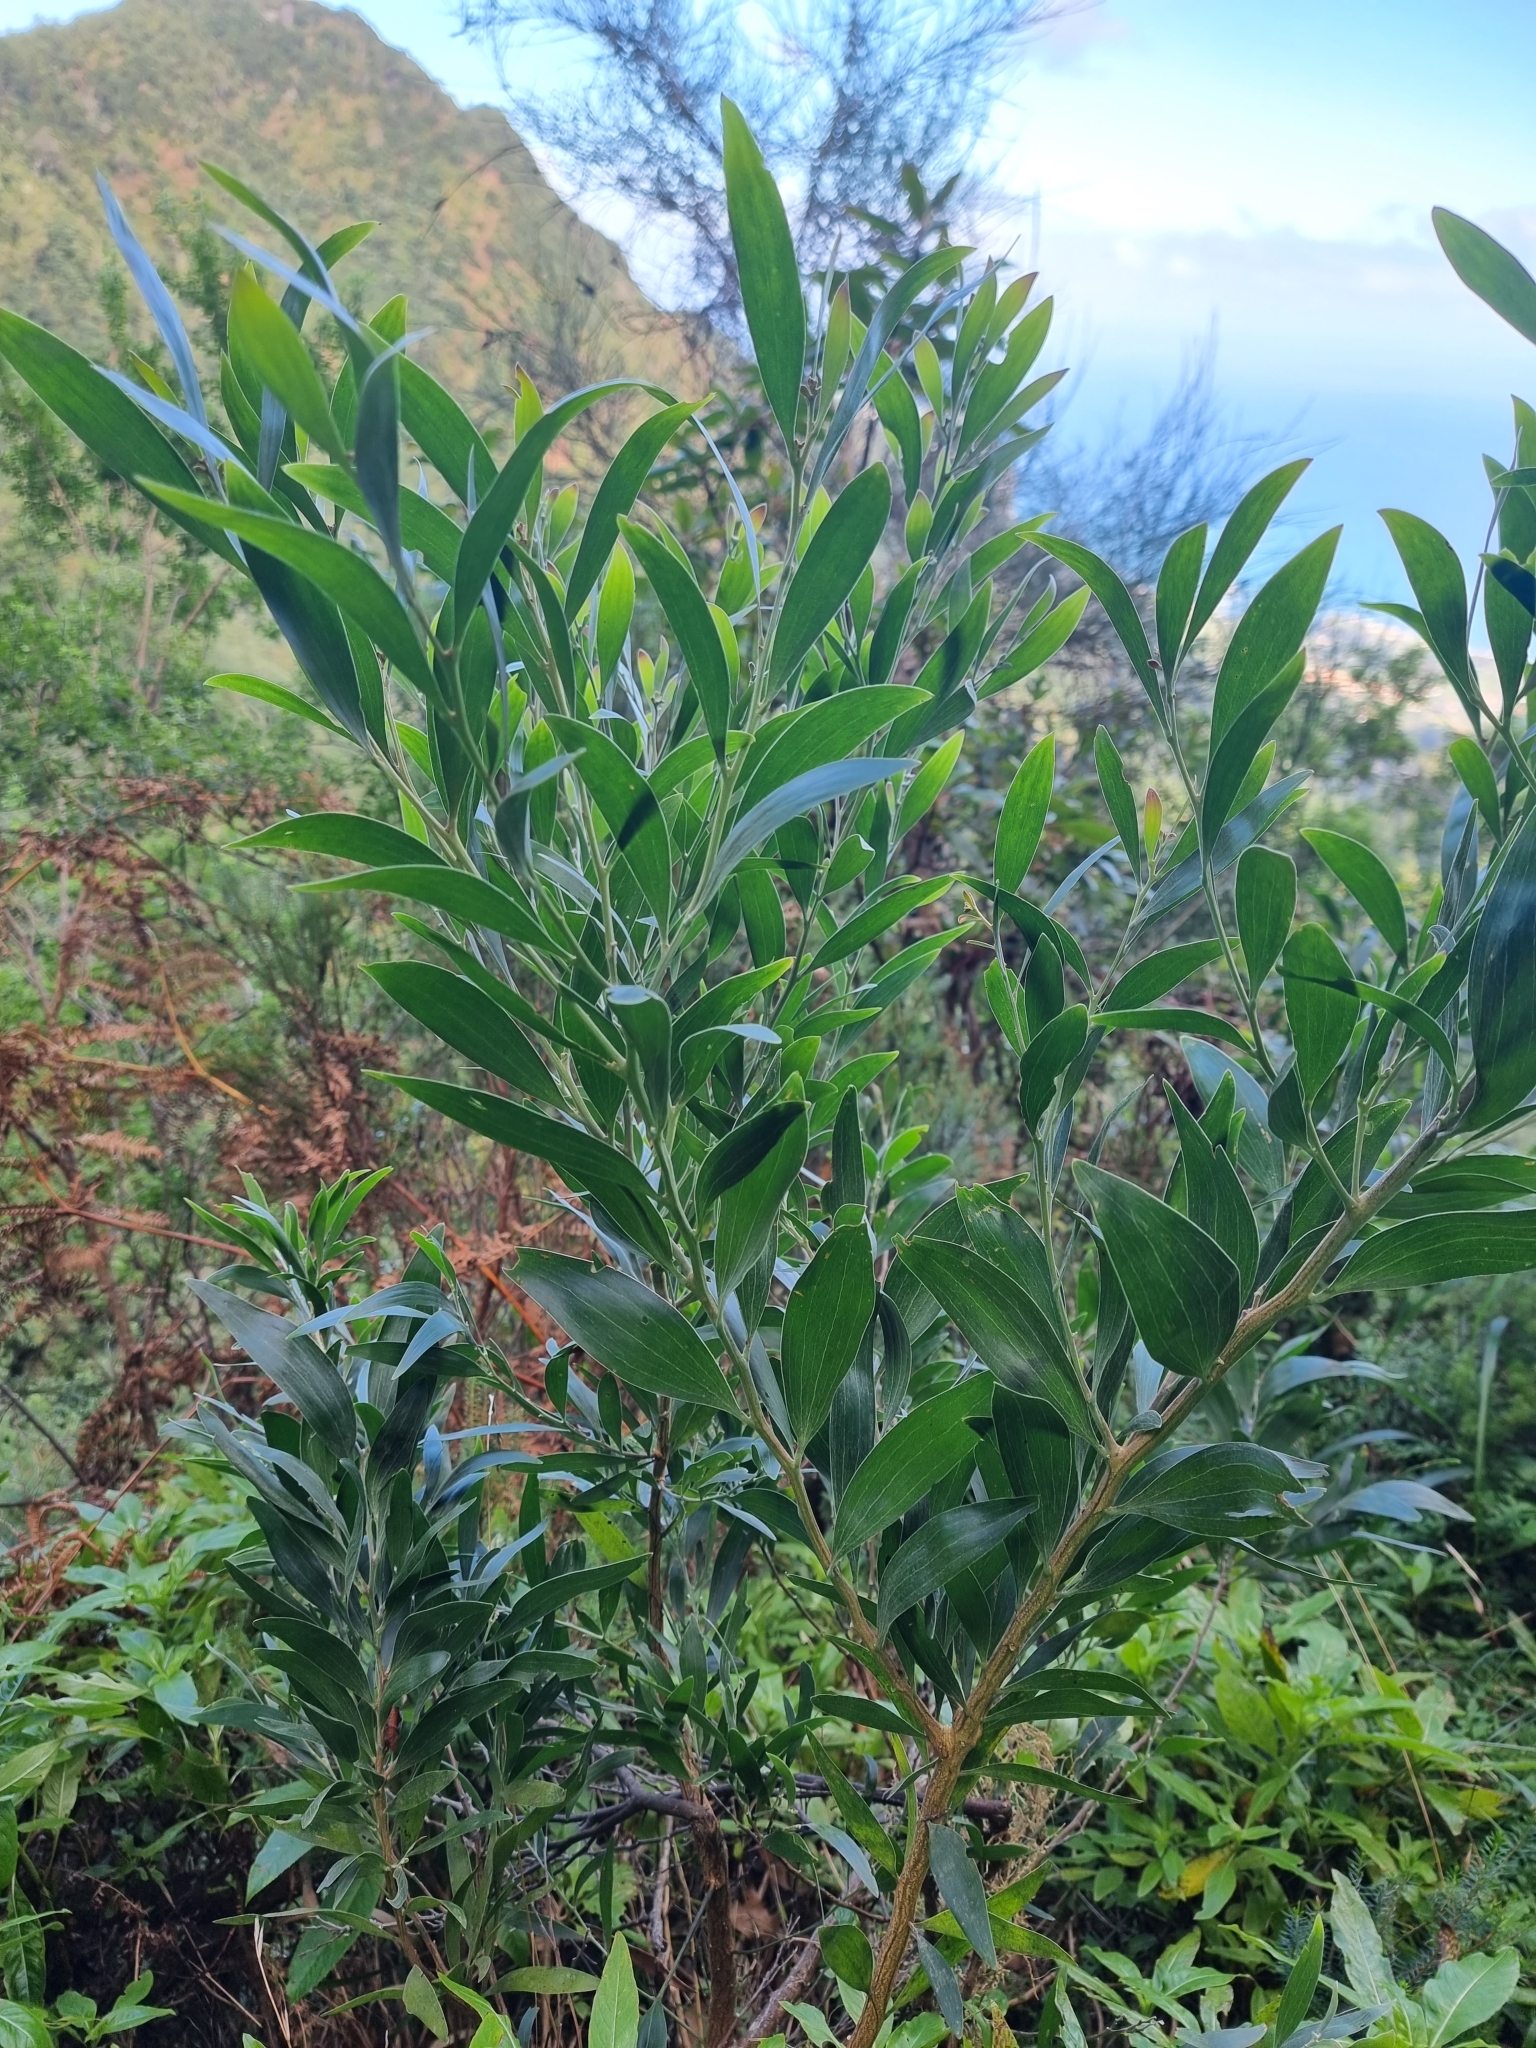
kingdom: Plantae
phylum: Tracheophyta
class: Magnoliopsida
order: Fabales
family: Fabaceae
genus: Acacia
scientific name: Acacia melanoxylon
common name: Blackwood
